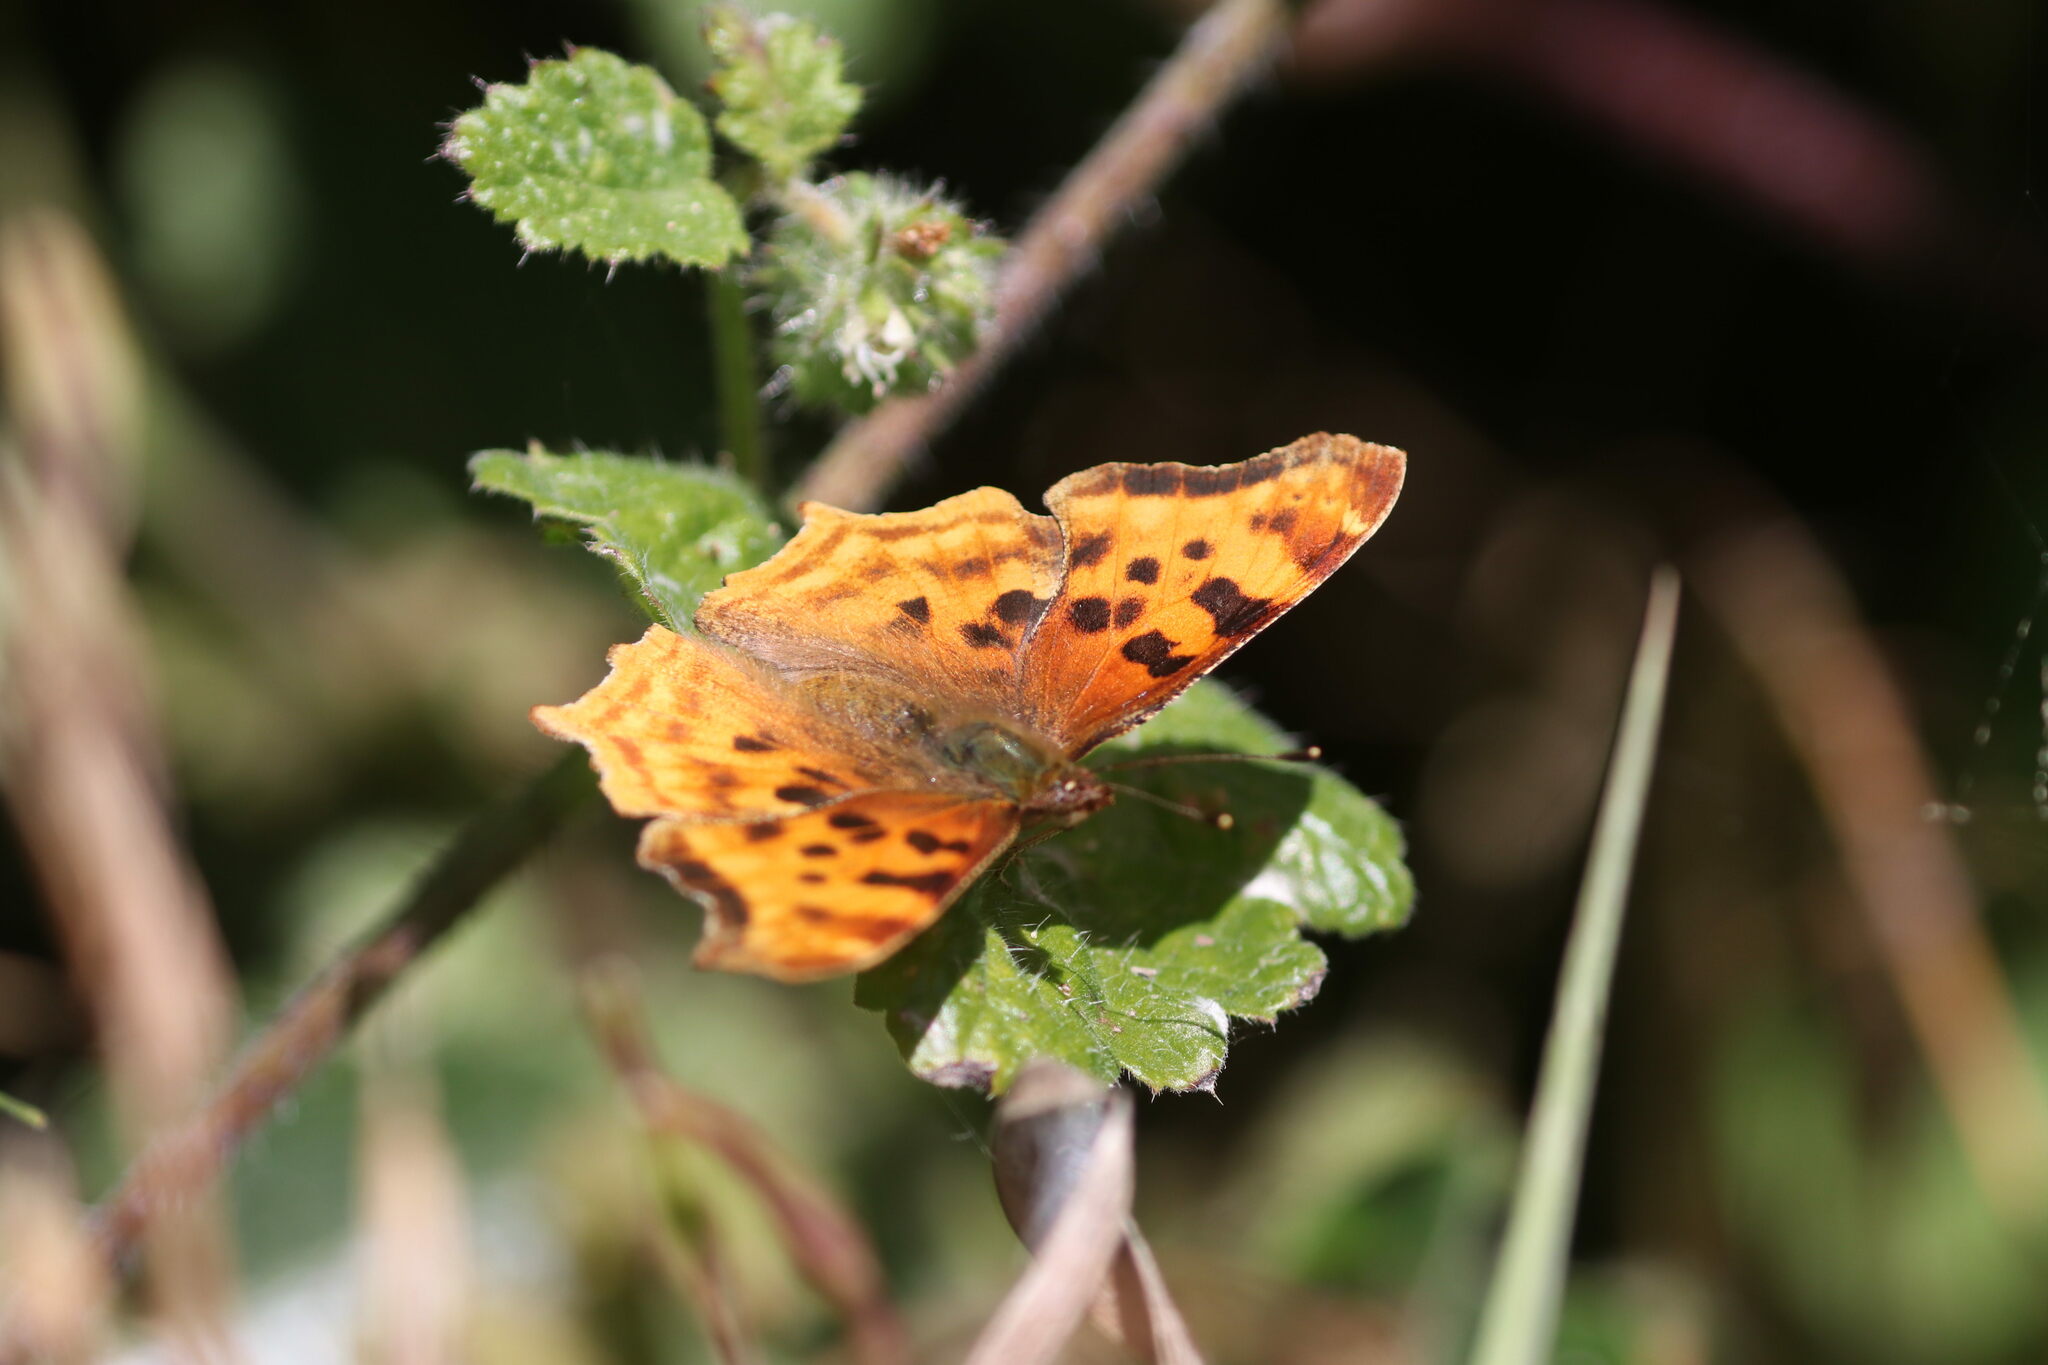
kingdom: Animalia
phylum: Arthropoda
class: Insecta
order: Lepidoptera
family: Nymphalidae
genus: Polygonia
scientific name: Polygonia satyrus
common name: Satyr angle wing
